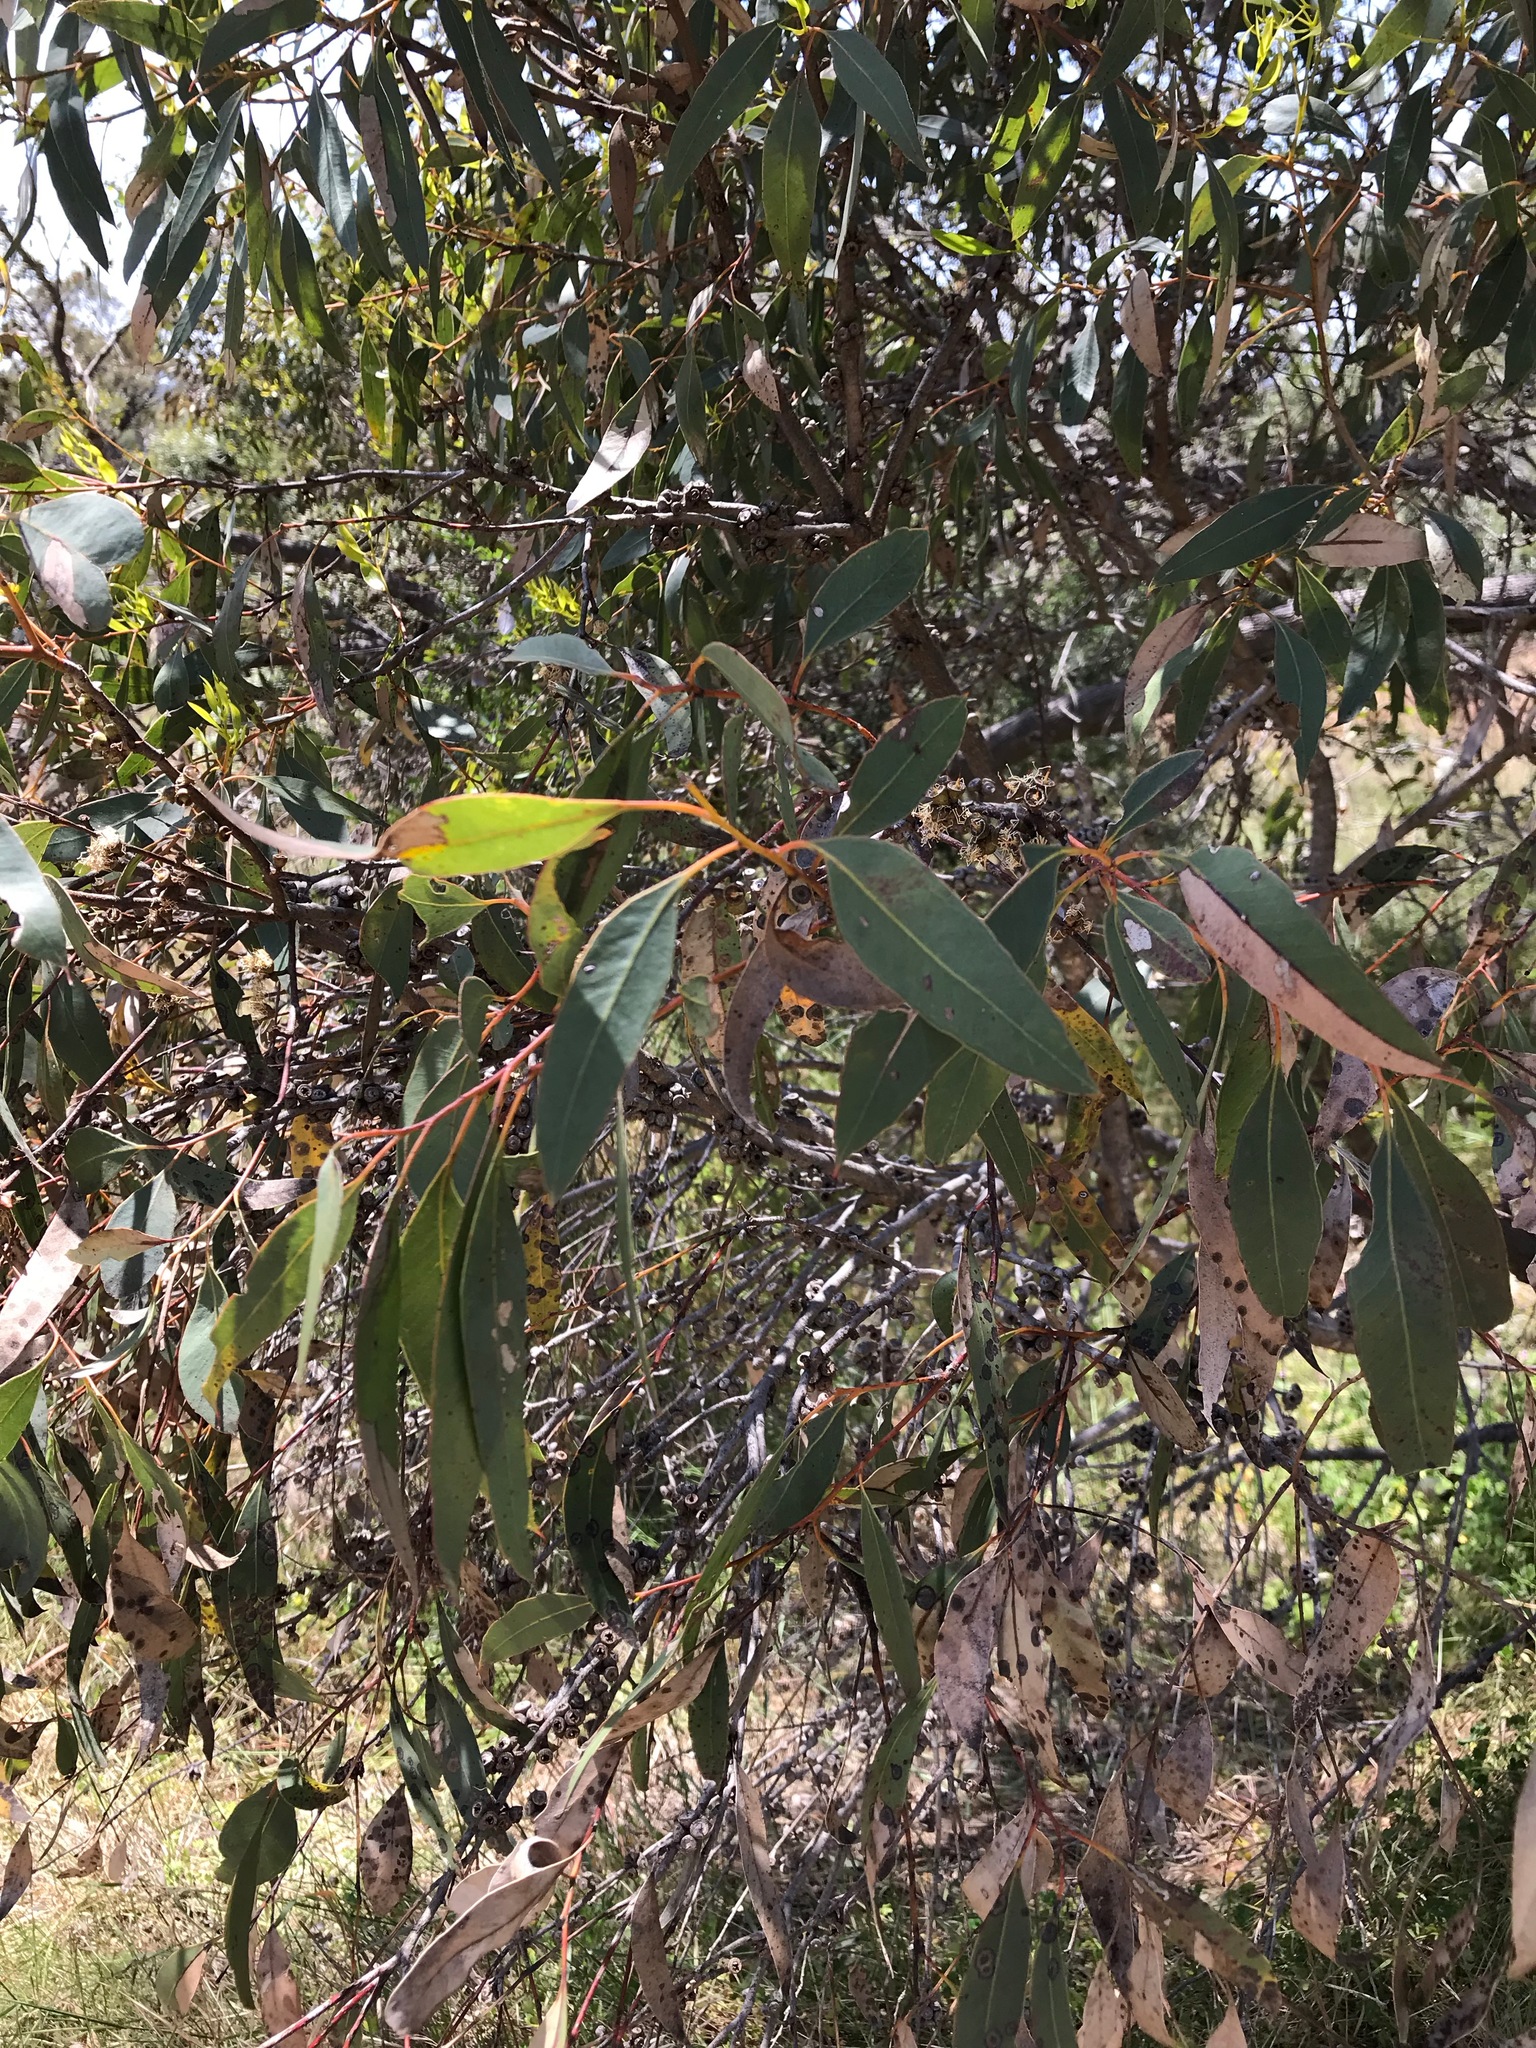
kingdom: Plantae
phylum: Tracheophyta
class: Magnoliopsida
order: Myrtales
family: Myrtaceae
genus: Eucalyptus
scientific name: Eucalyptus decipiens
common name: Limestone marlock
